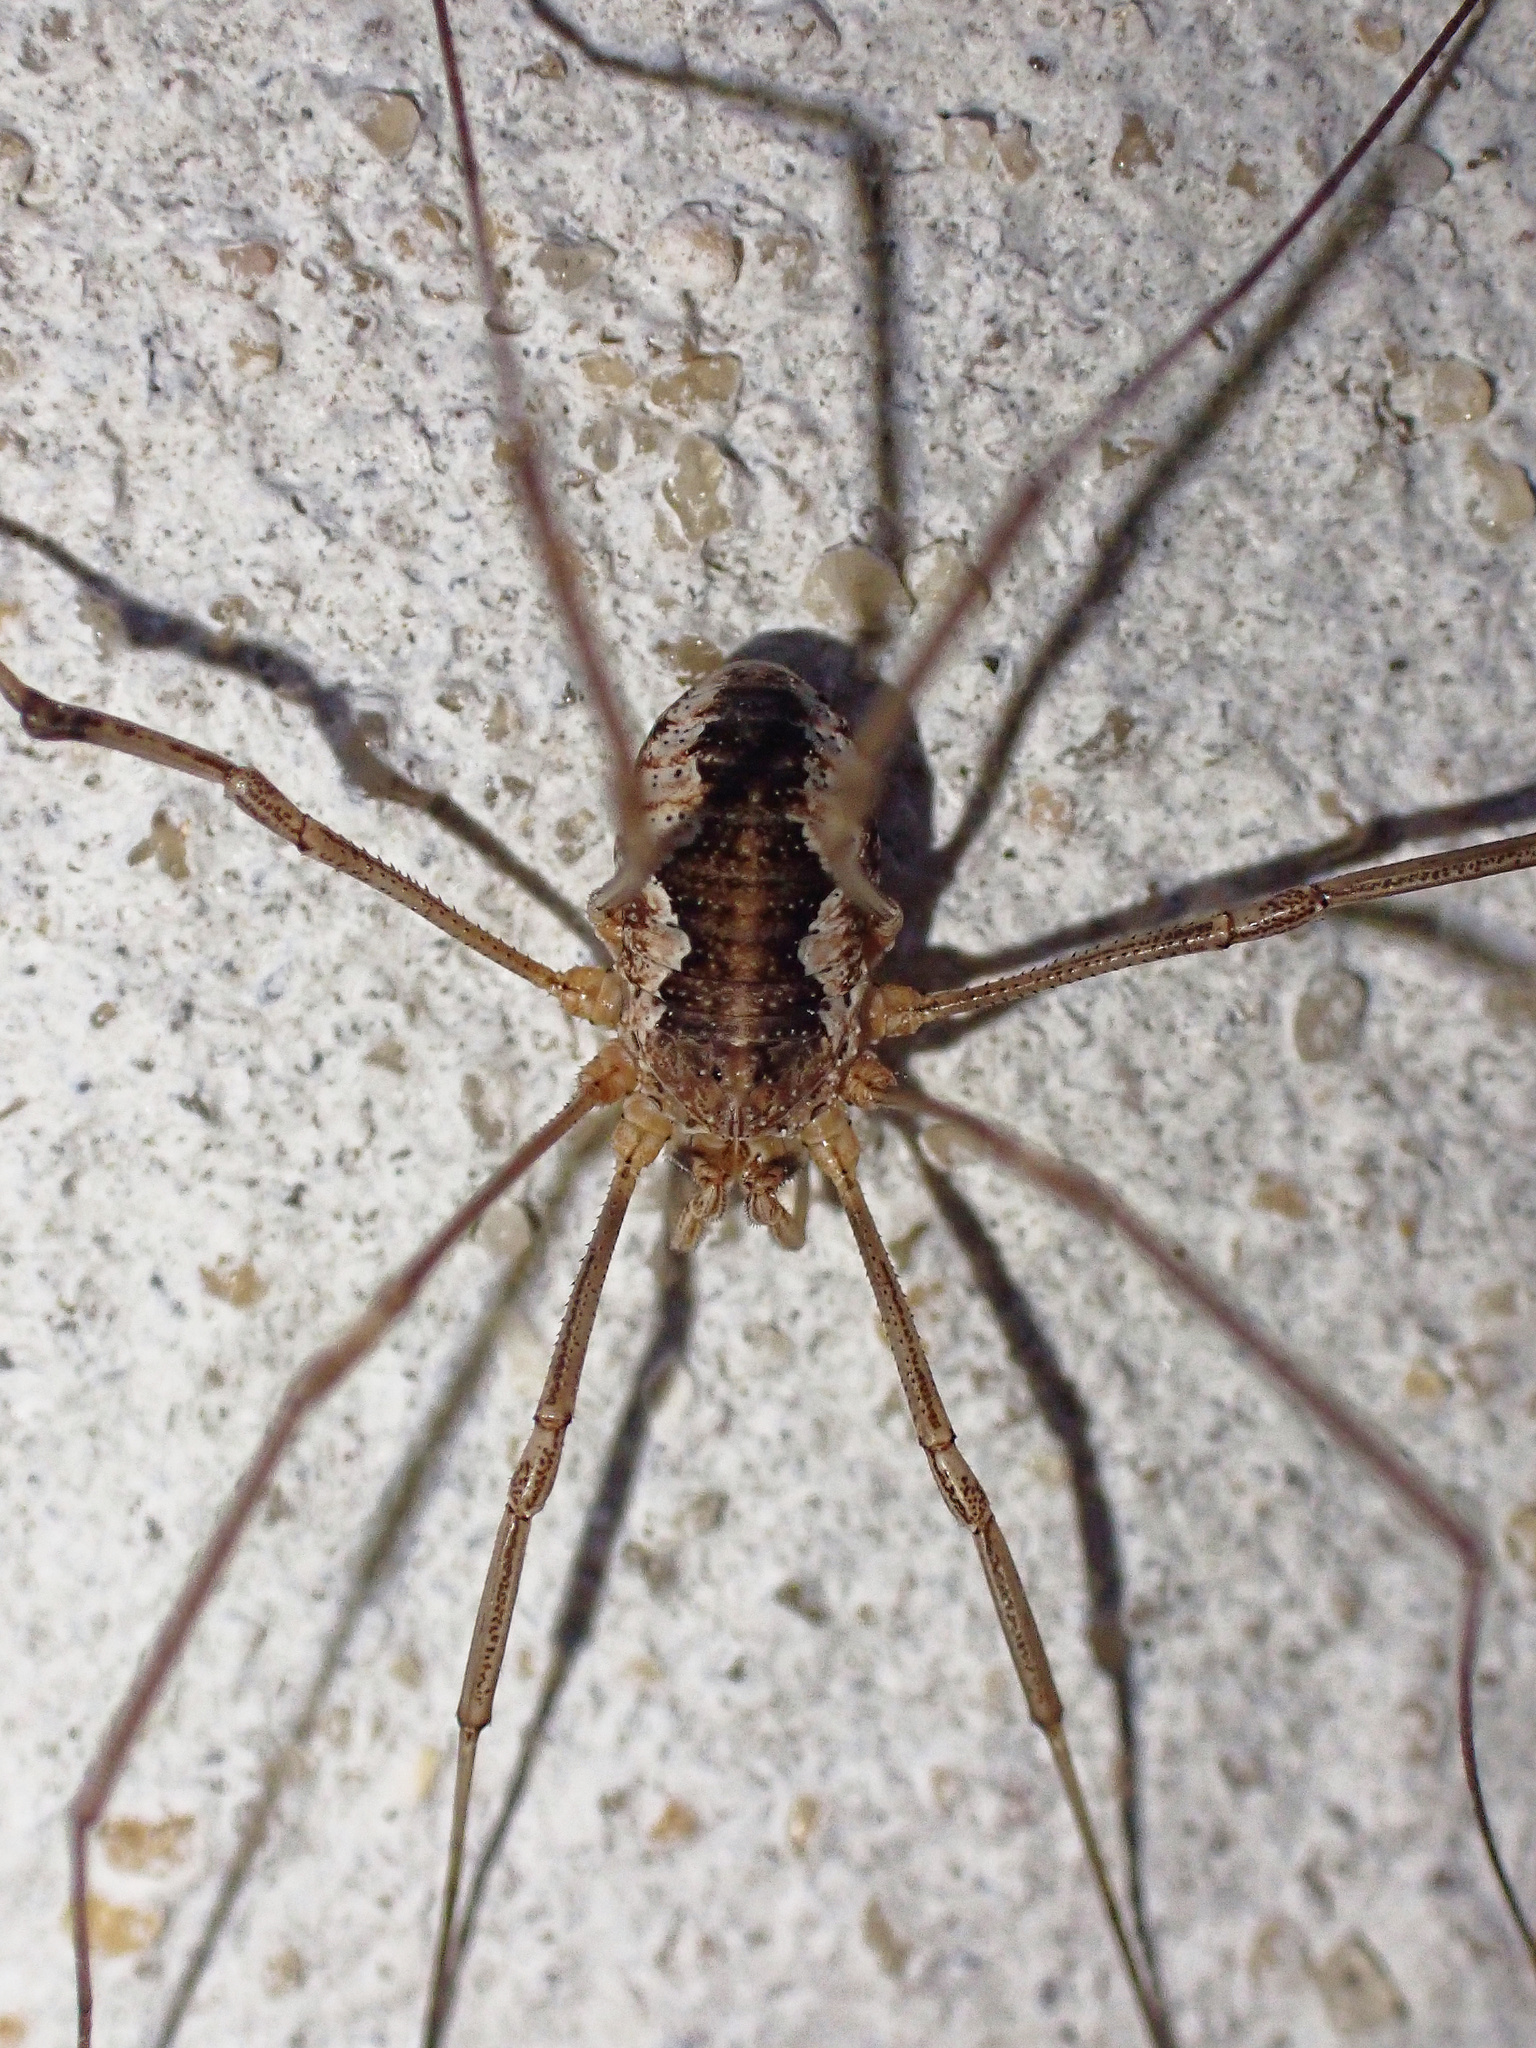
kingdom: Animalia
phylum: Arthropoda
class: Arachnida
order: Opiliones
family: Phalangiidae
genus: Phalangium
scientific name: Phalangium opilio
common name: Daddy longleg
